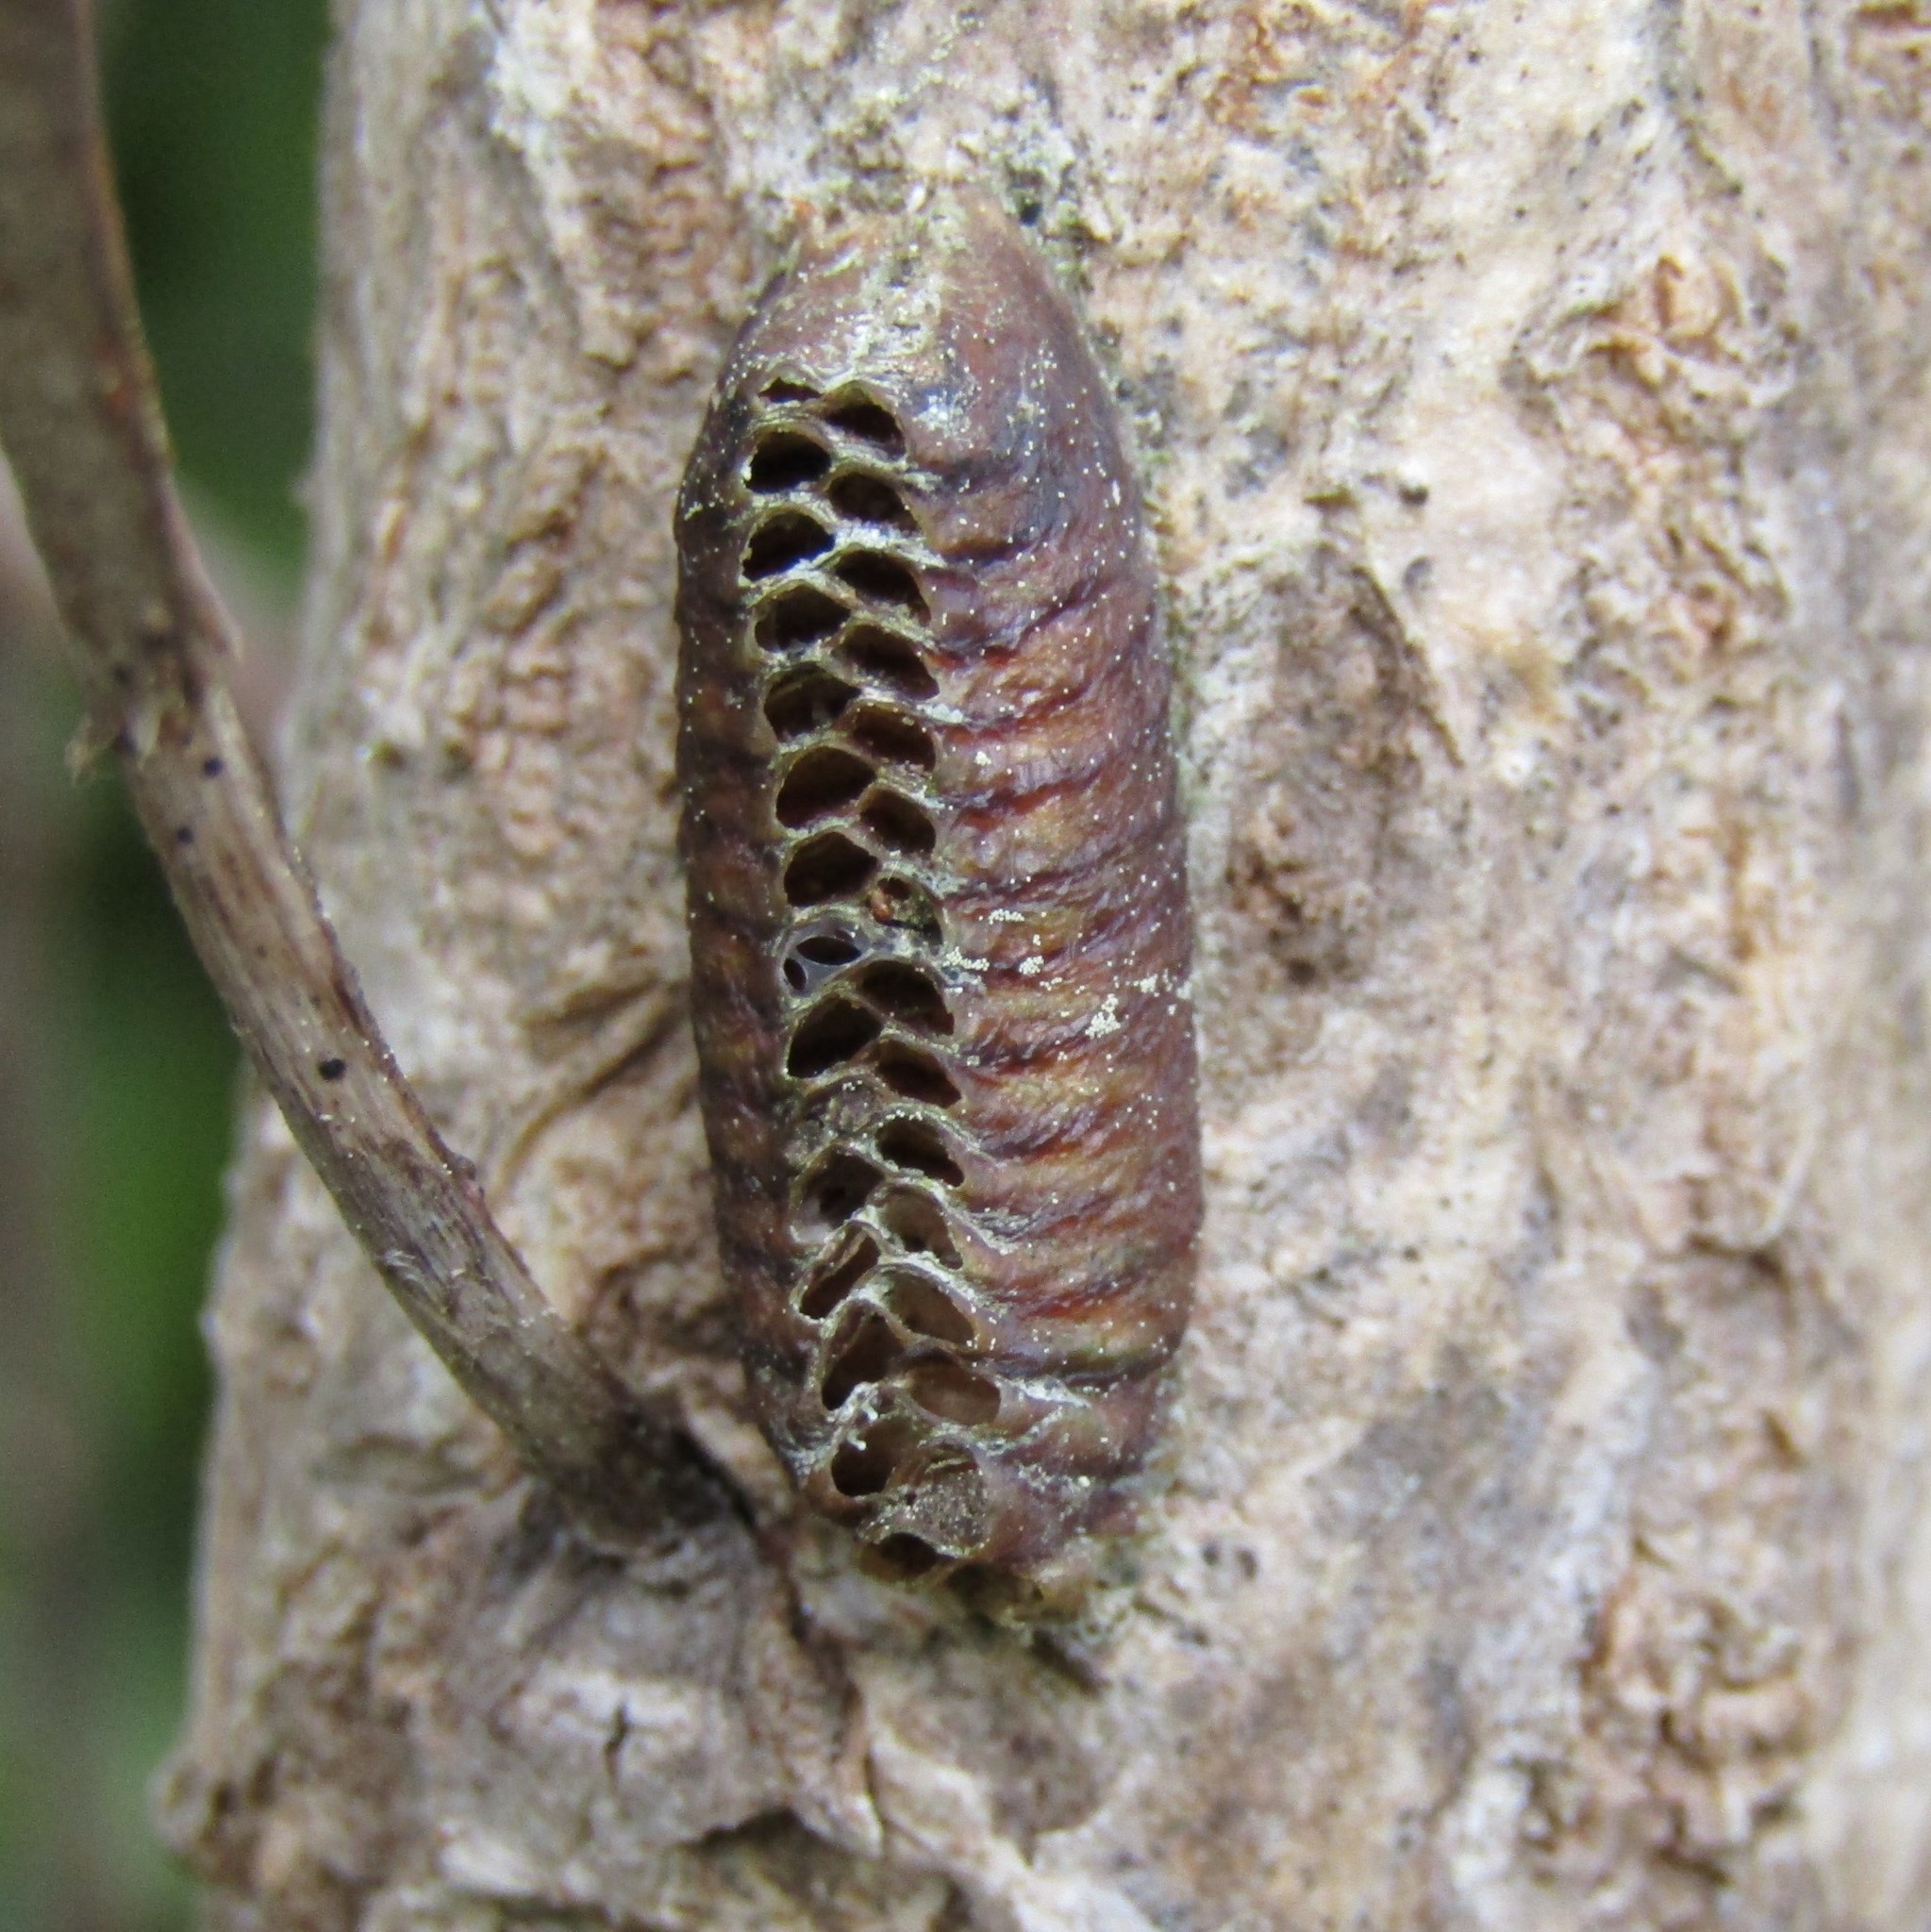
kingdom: Animalia
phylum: Arthropoda
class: Insecta
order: Mantodea
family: Mantidae
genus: Orthodera
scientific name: Orthodera novaezealandiae
